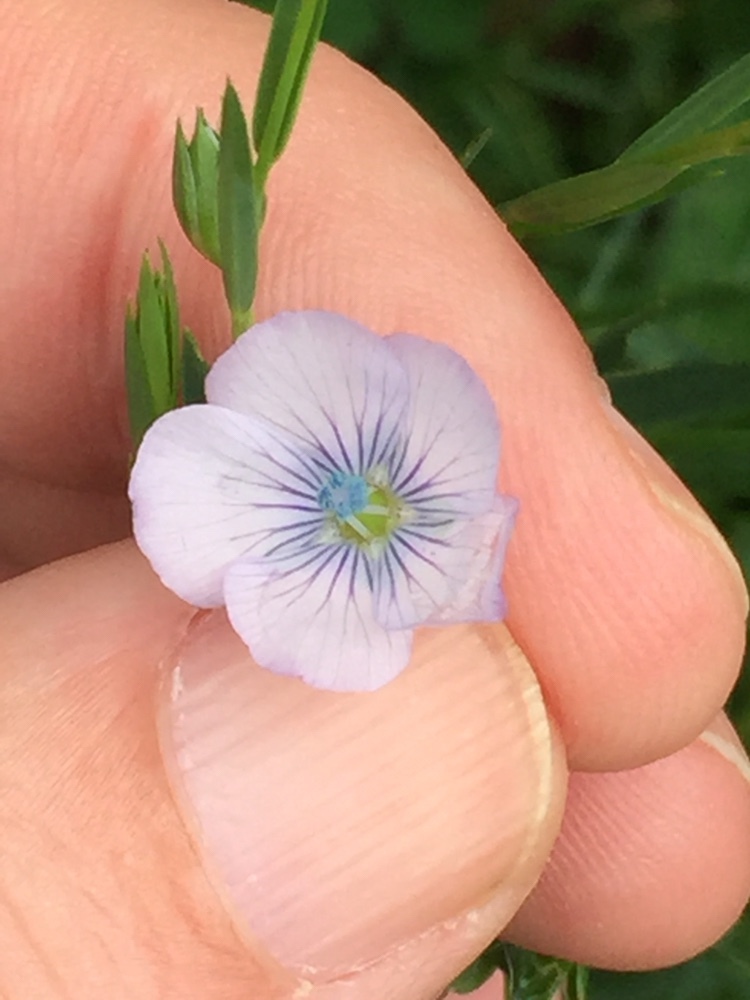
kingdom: Plantae
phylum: Tracheophyta
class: Magnoliopsida
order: Malpighiales
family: Linaceae
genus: Linum
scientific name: Linum bienne
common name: Pale flax
